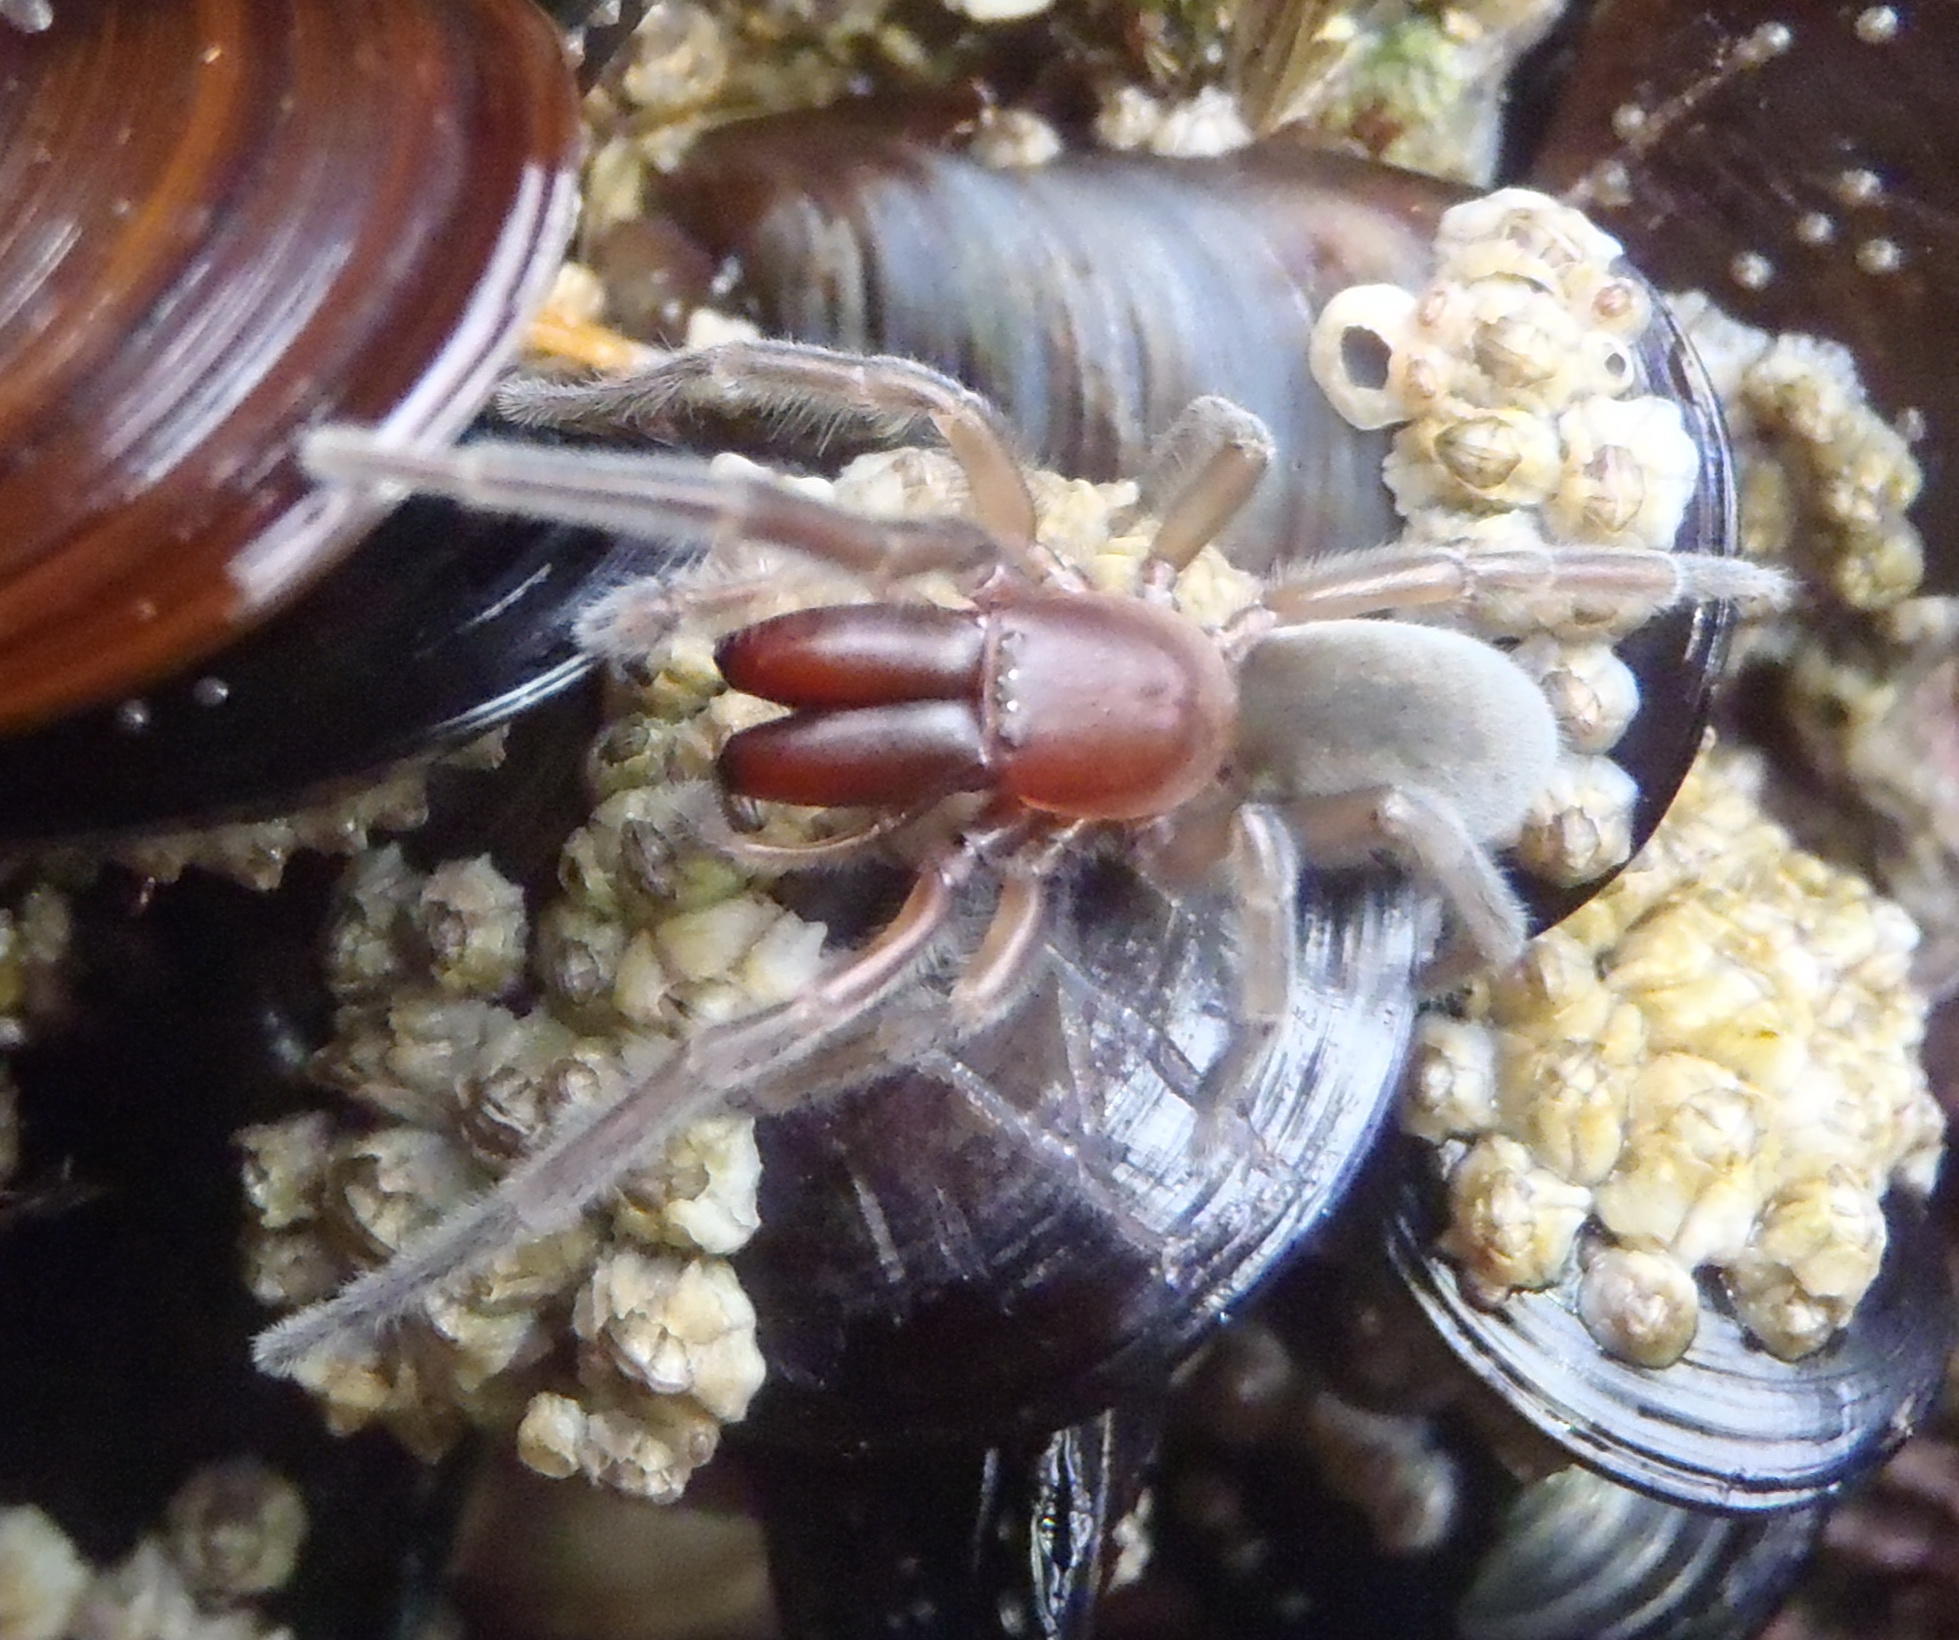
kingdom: Animalia
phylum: Arthropoda
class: Arachnida
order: Araneae
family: Desidae
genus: Desis
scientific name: Desis formidabilis
